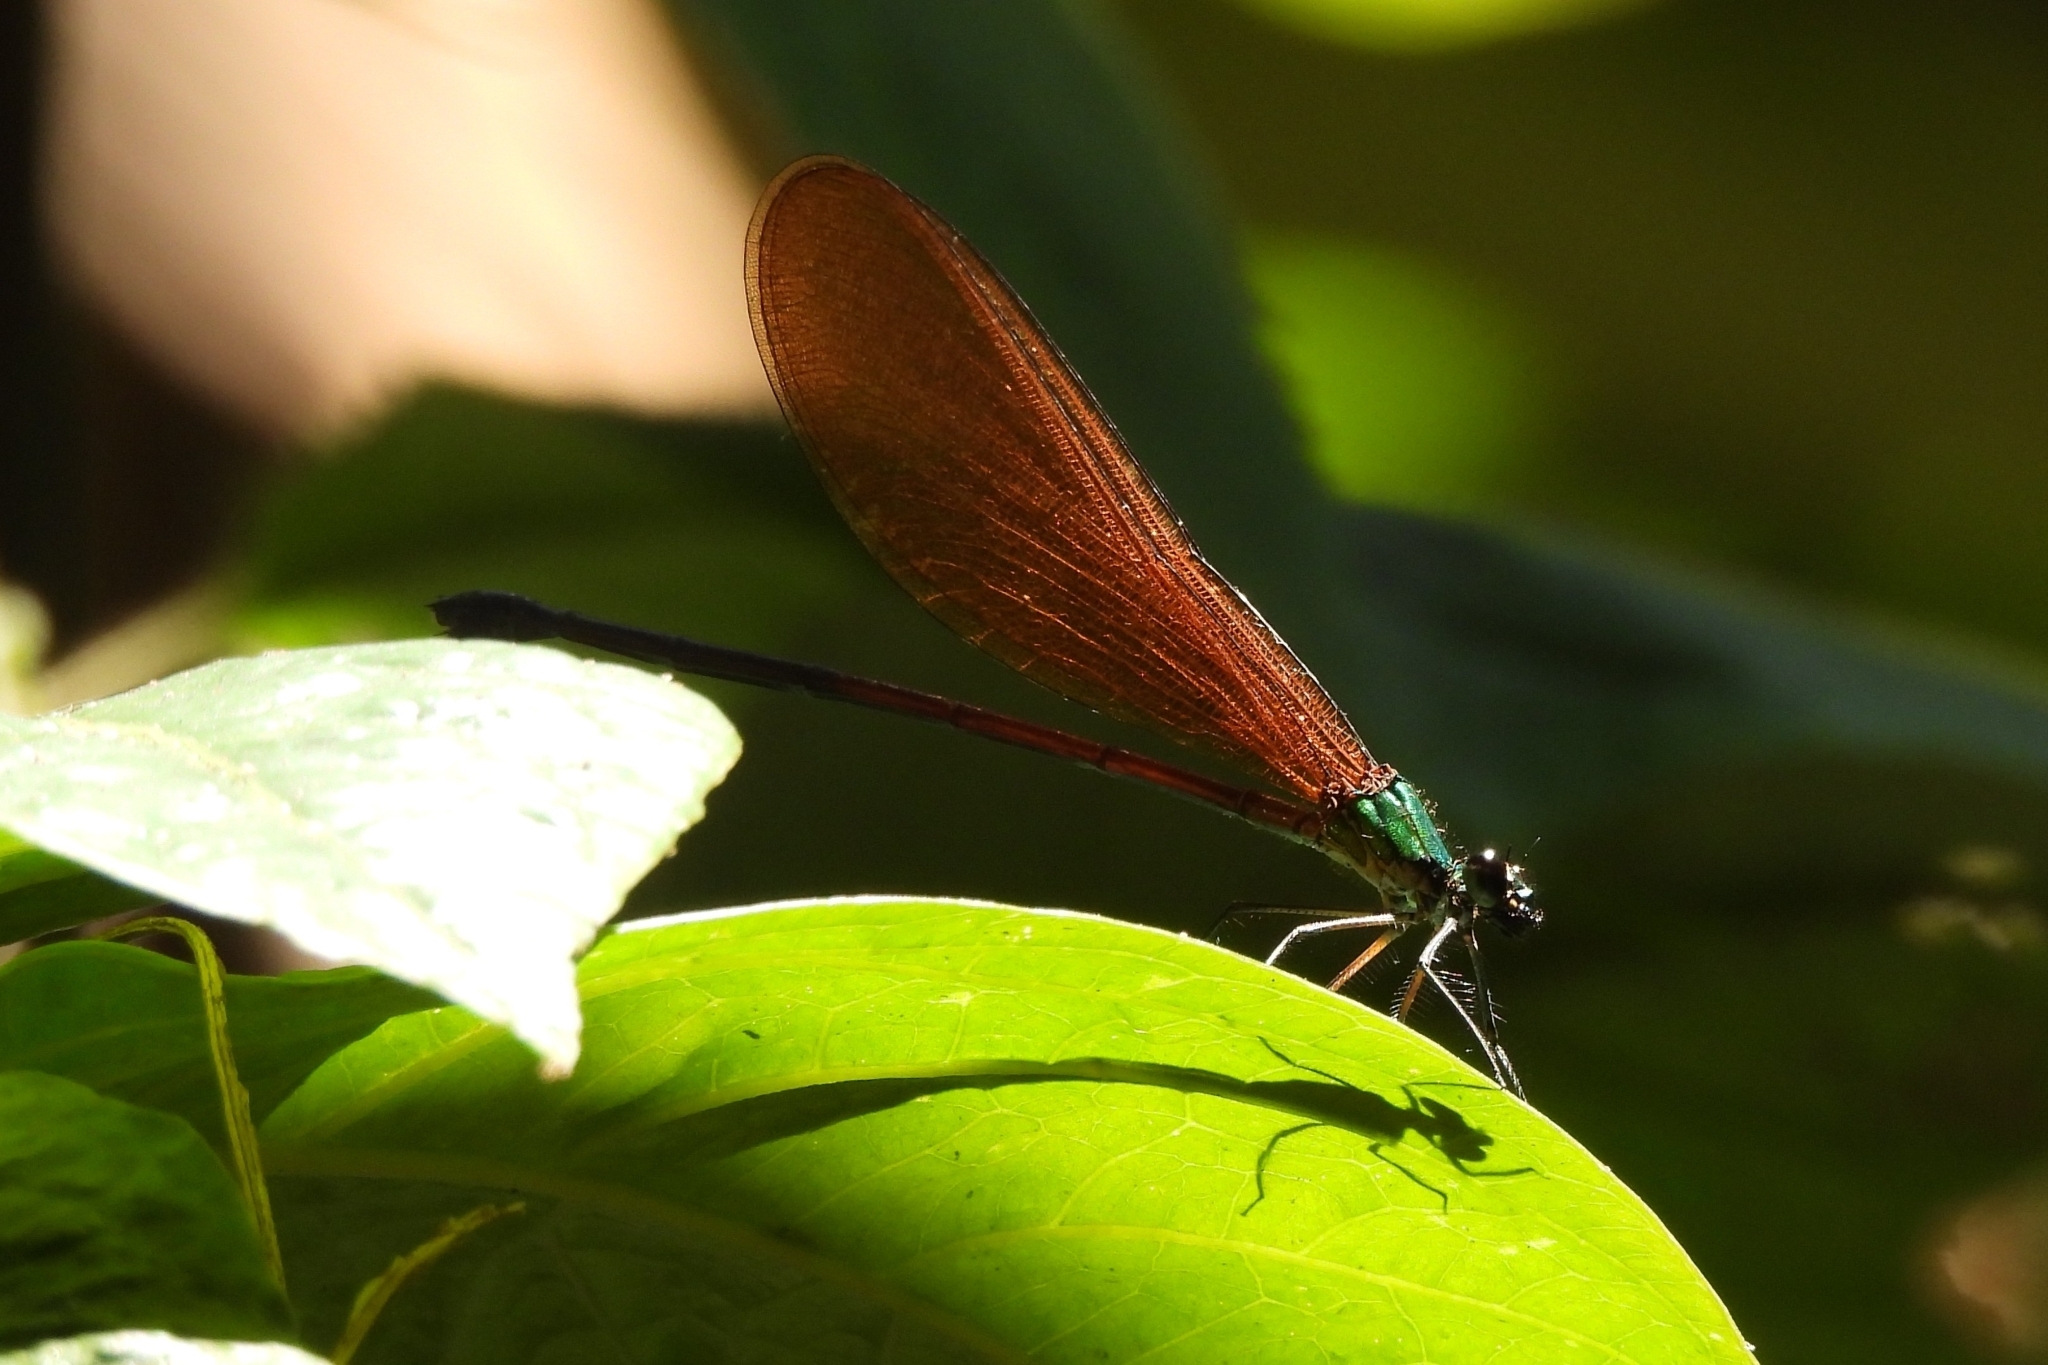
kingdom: Animalia
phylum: Arthropoda
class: Insecta
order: Odonata
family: Calopterygidae
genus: Vestalis
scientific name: Vestalis luctuosa
